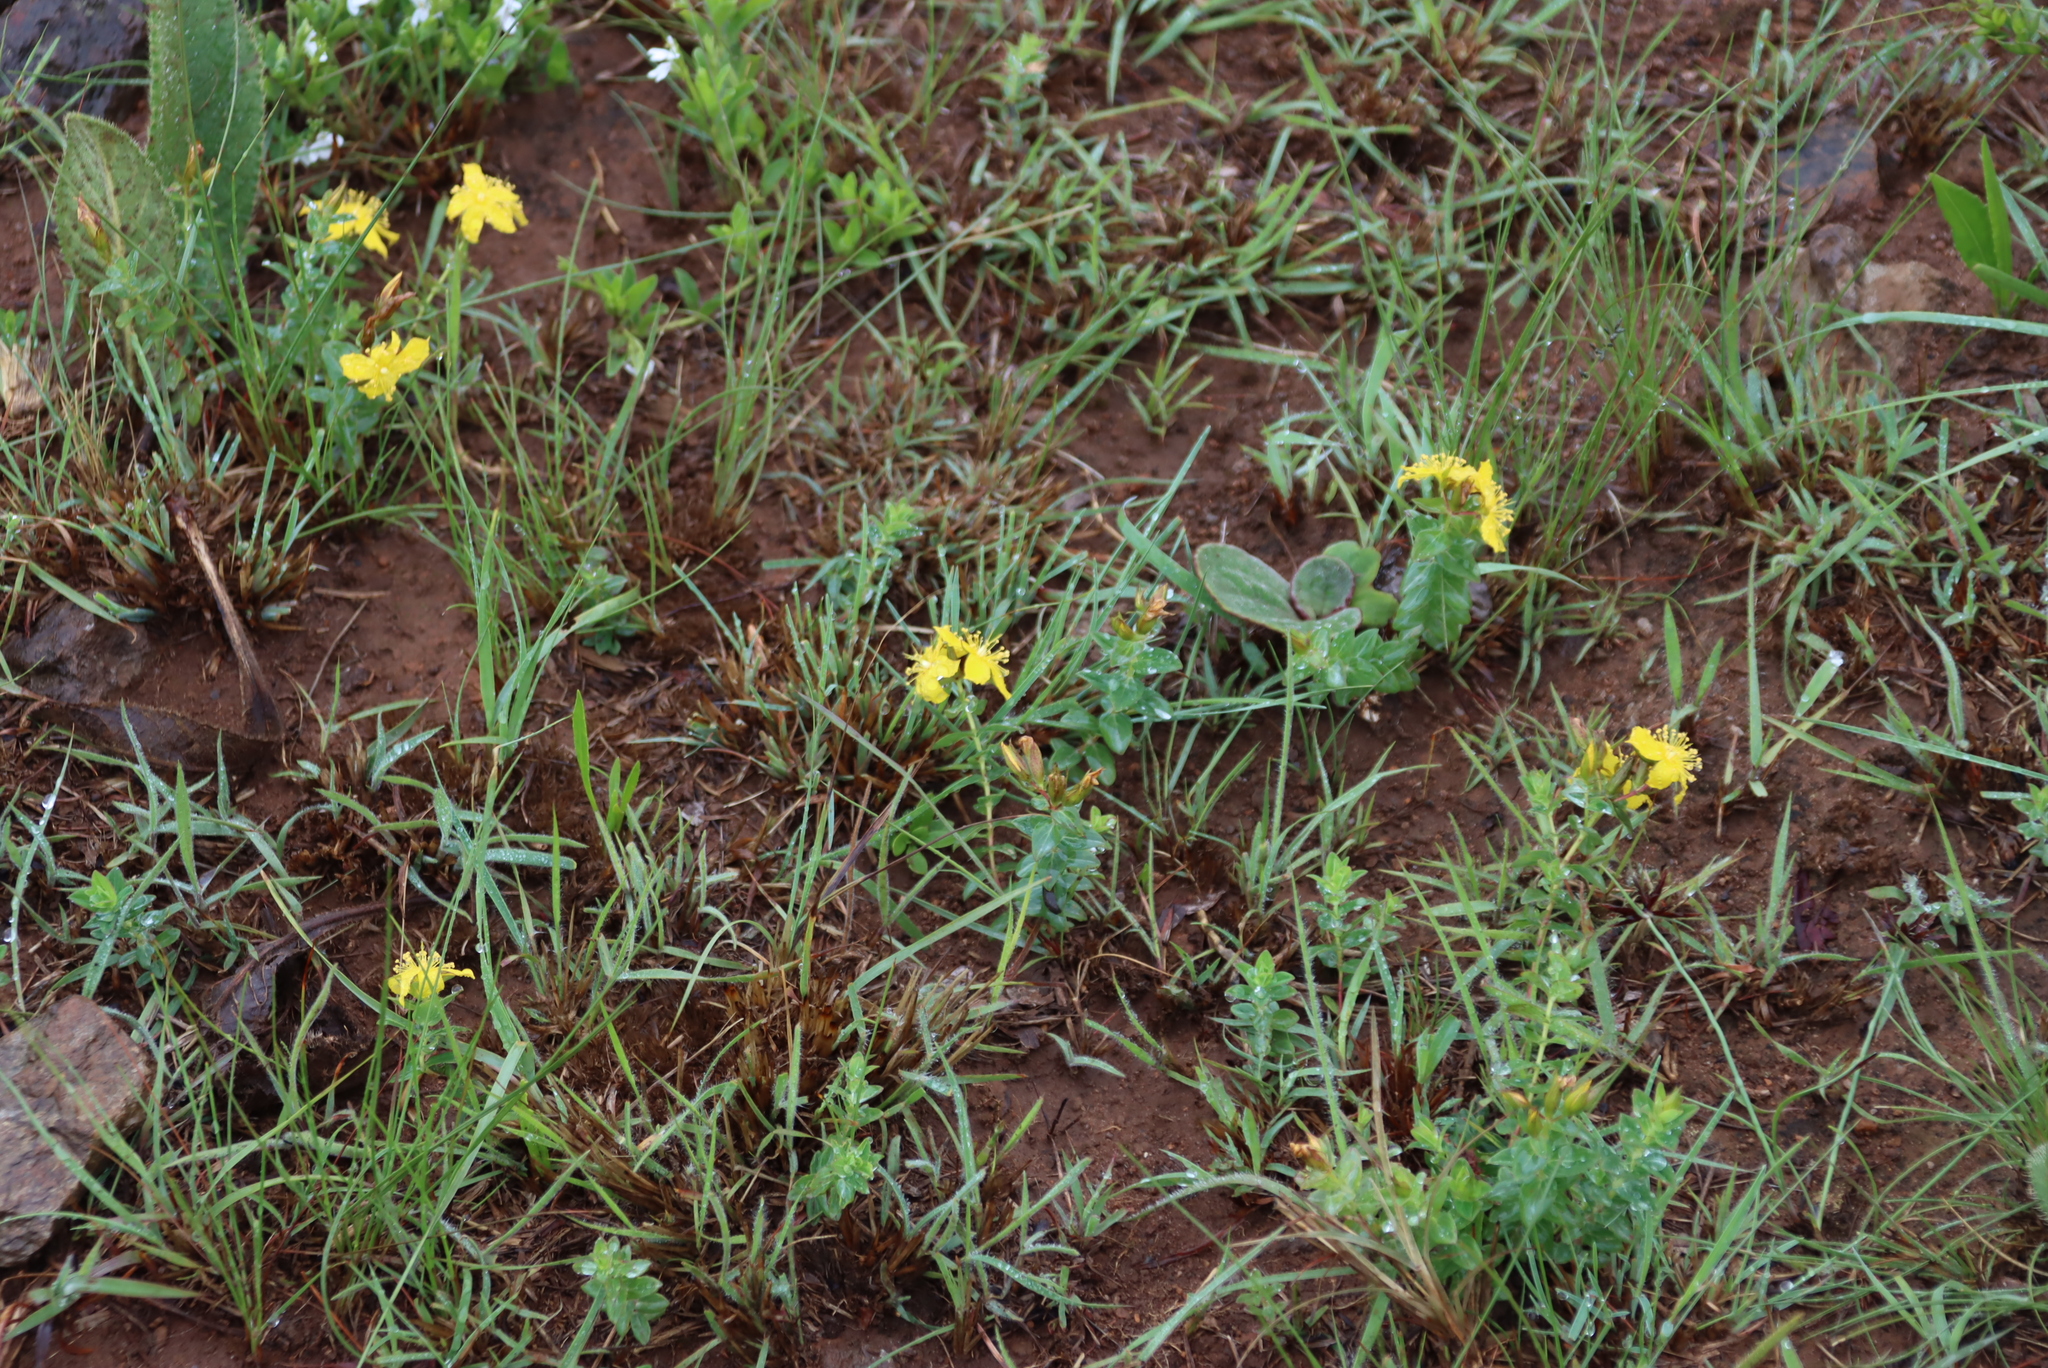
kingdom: Plantae
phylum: Tracheophyta
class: Magnoliopsida
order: Malpighiales
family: Hypericaceae
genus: Hypericum
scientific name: Hypericum aethiopicum
